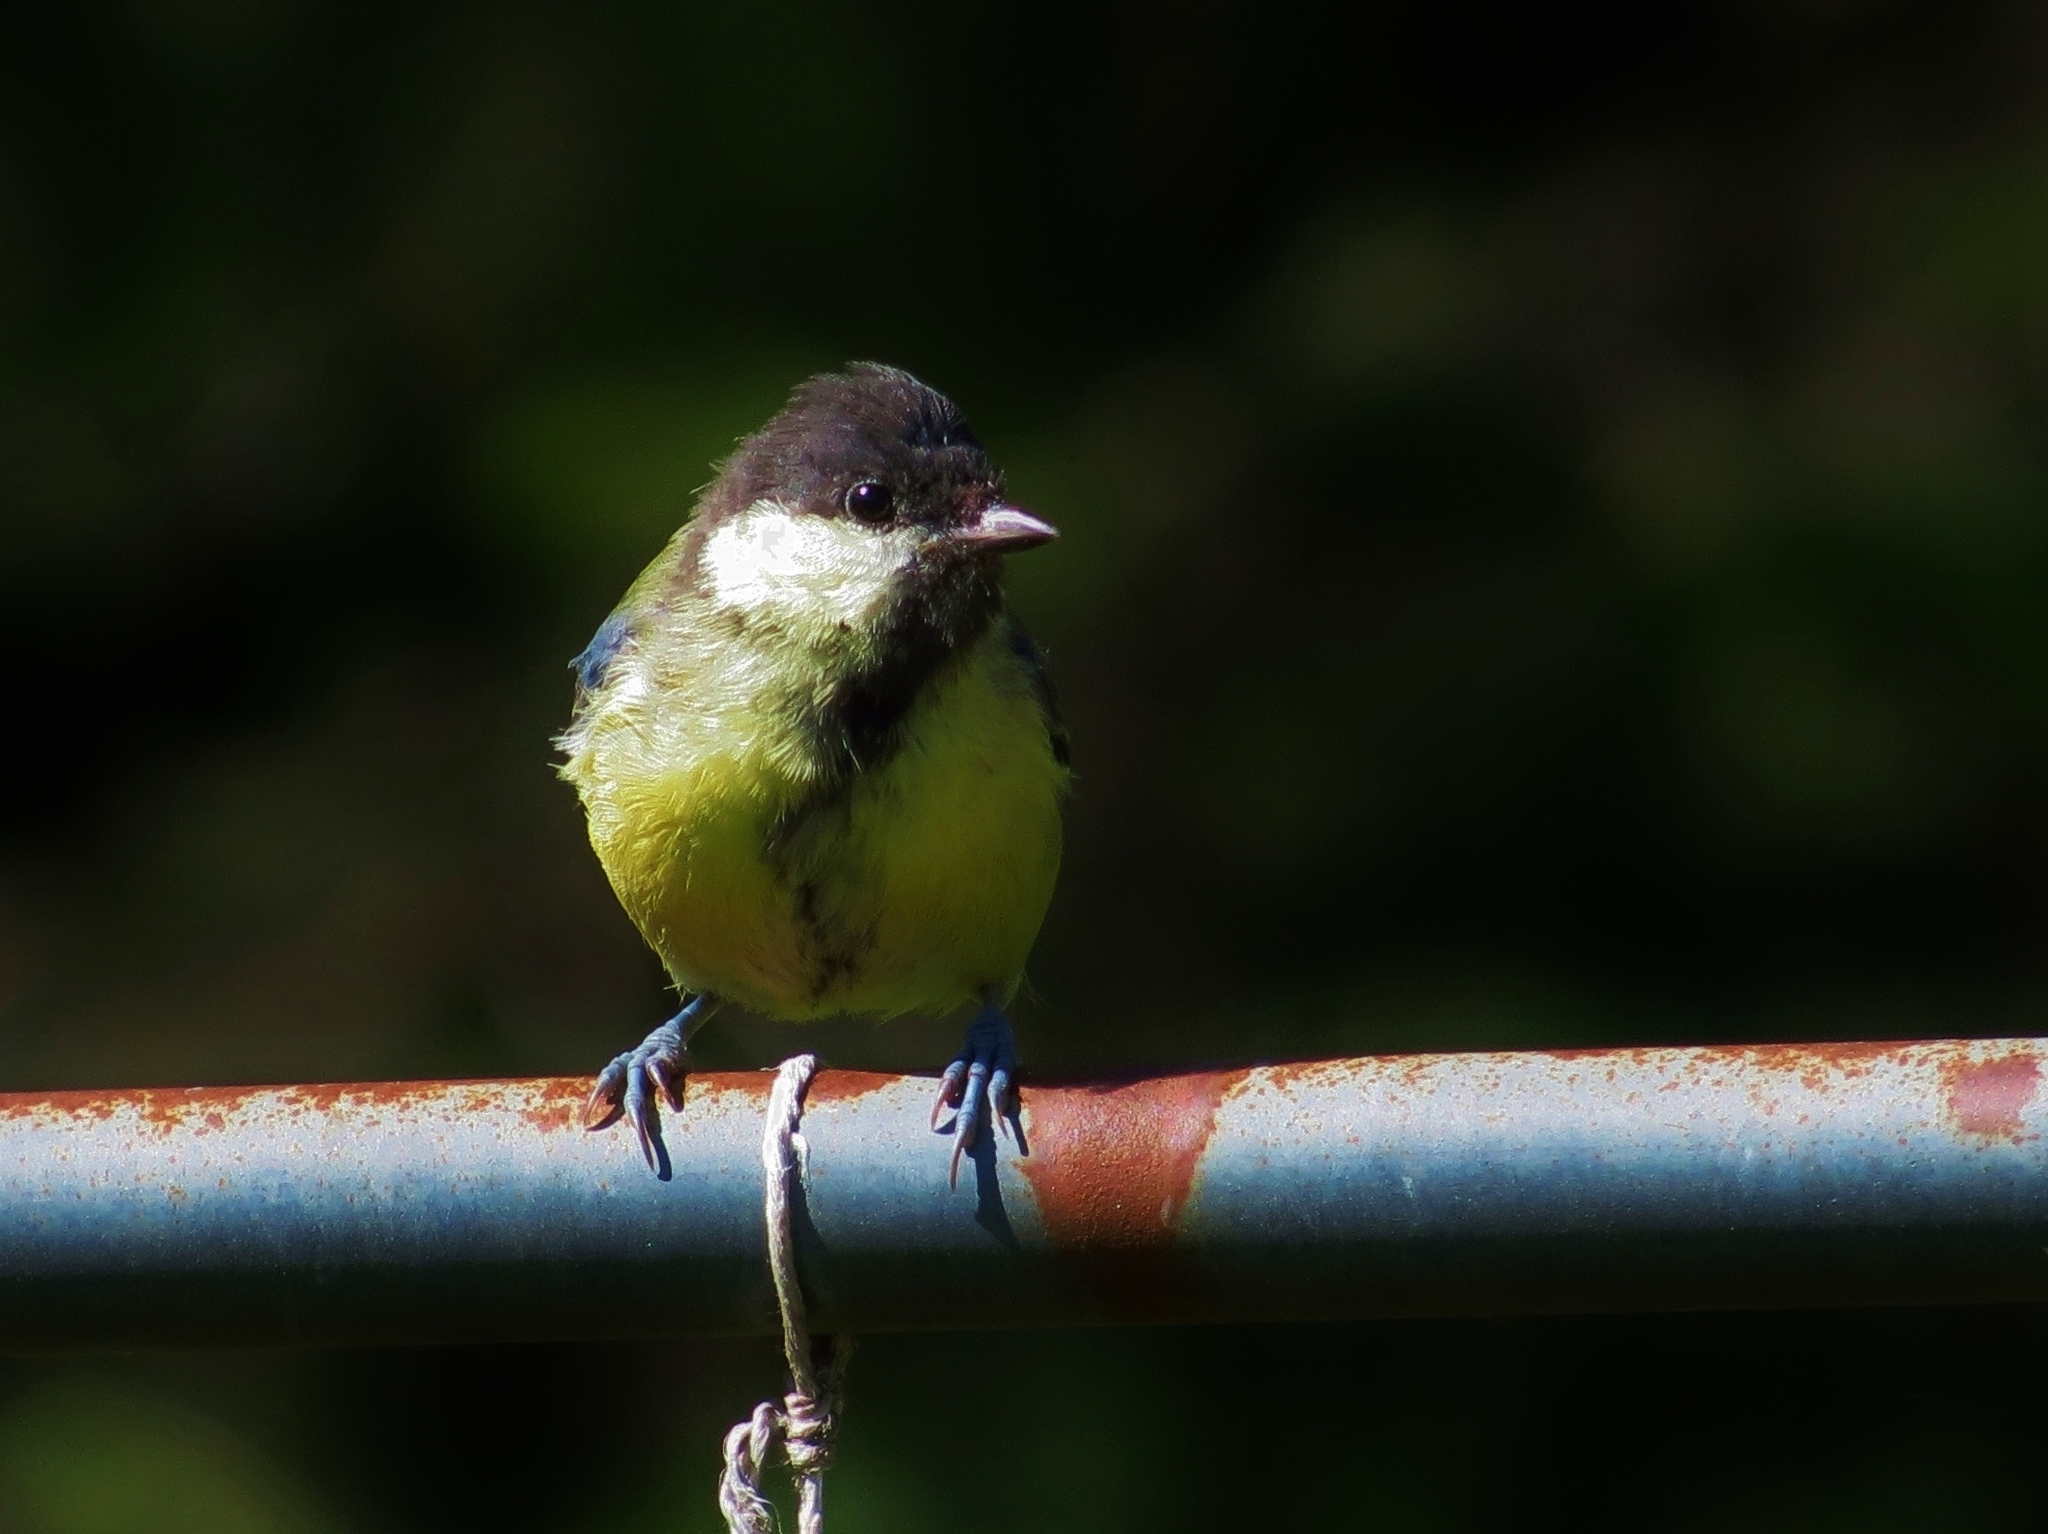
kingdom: Animalia
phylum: Chordata
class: Aves
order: Passeriformes
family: Paridae
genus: Parus
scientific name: Parus major
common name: Great tit
